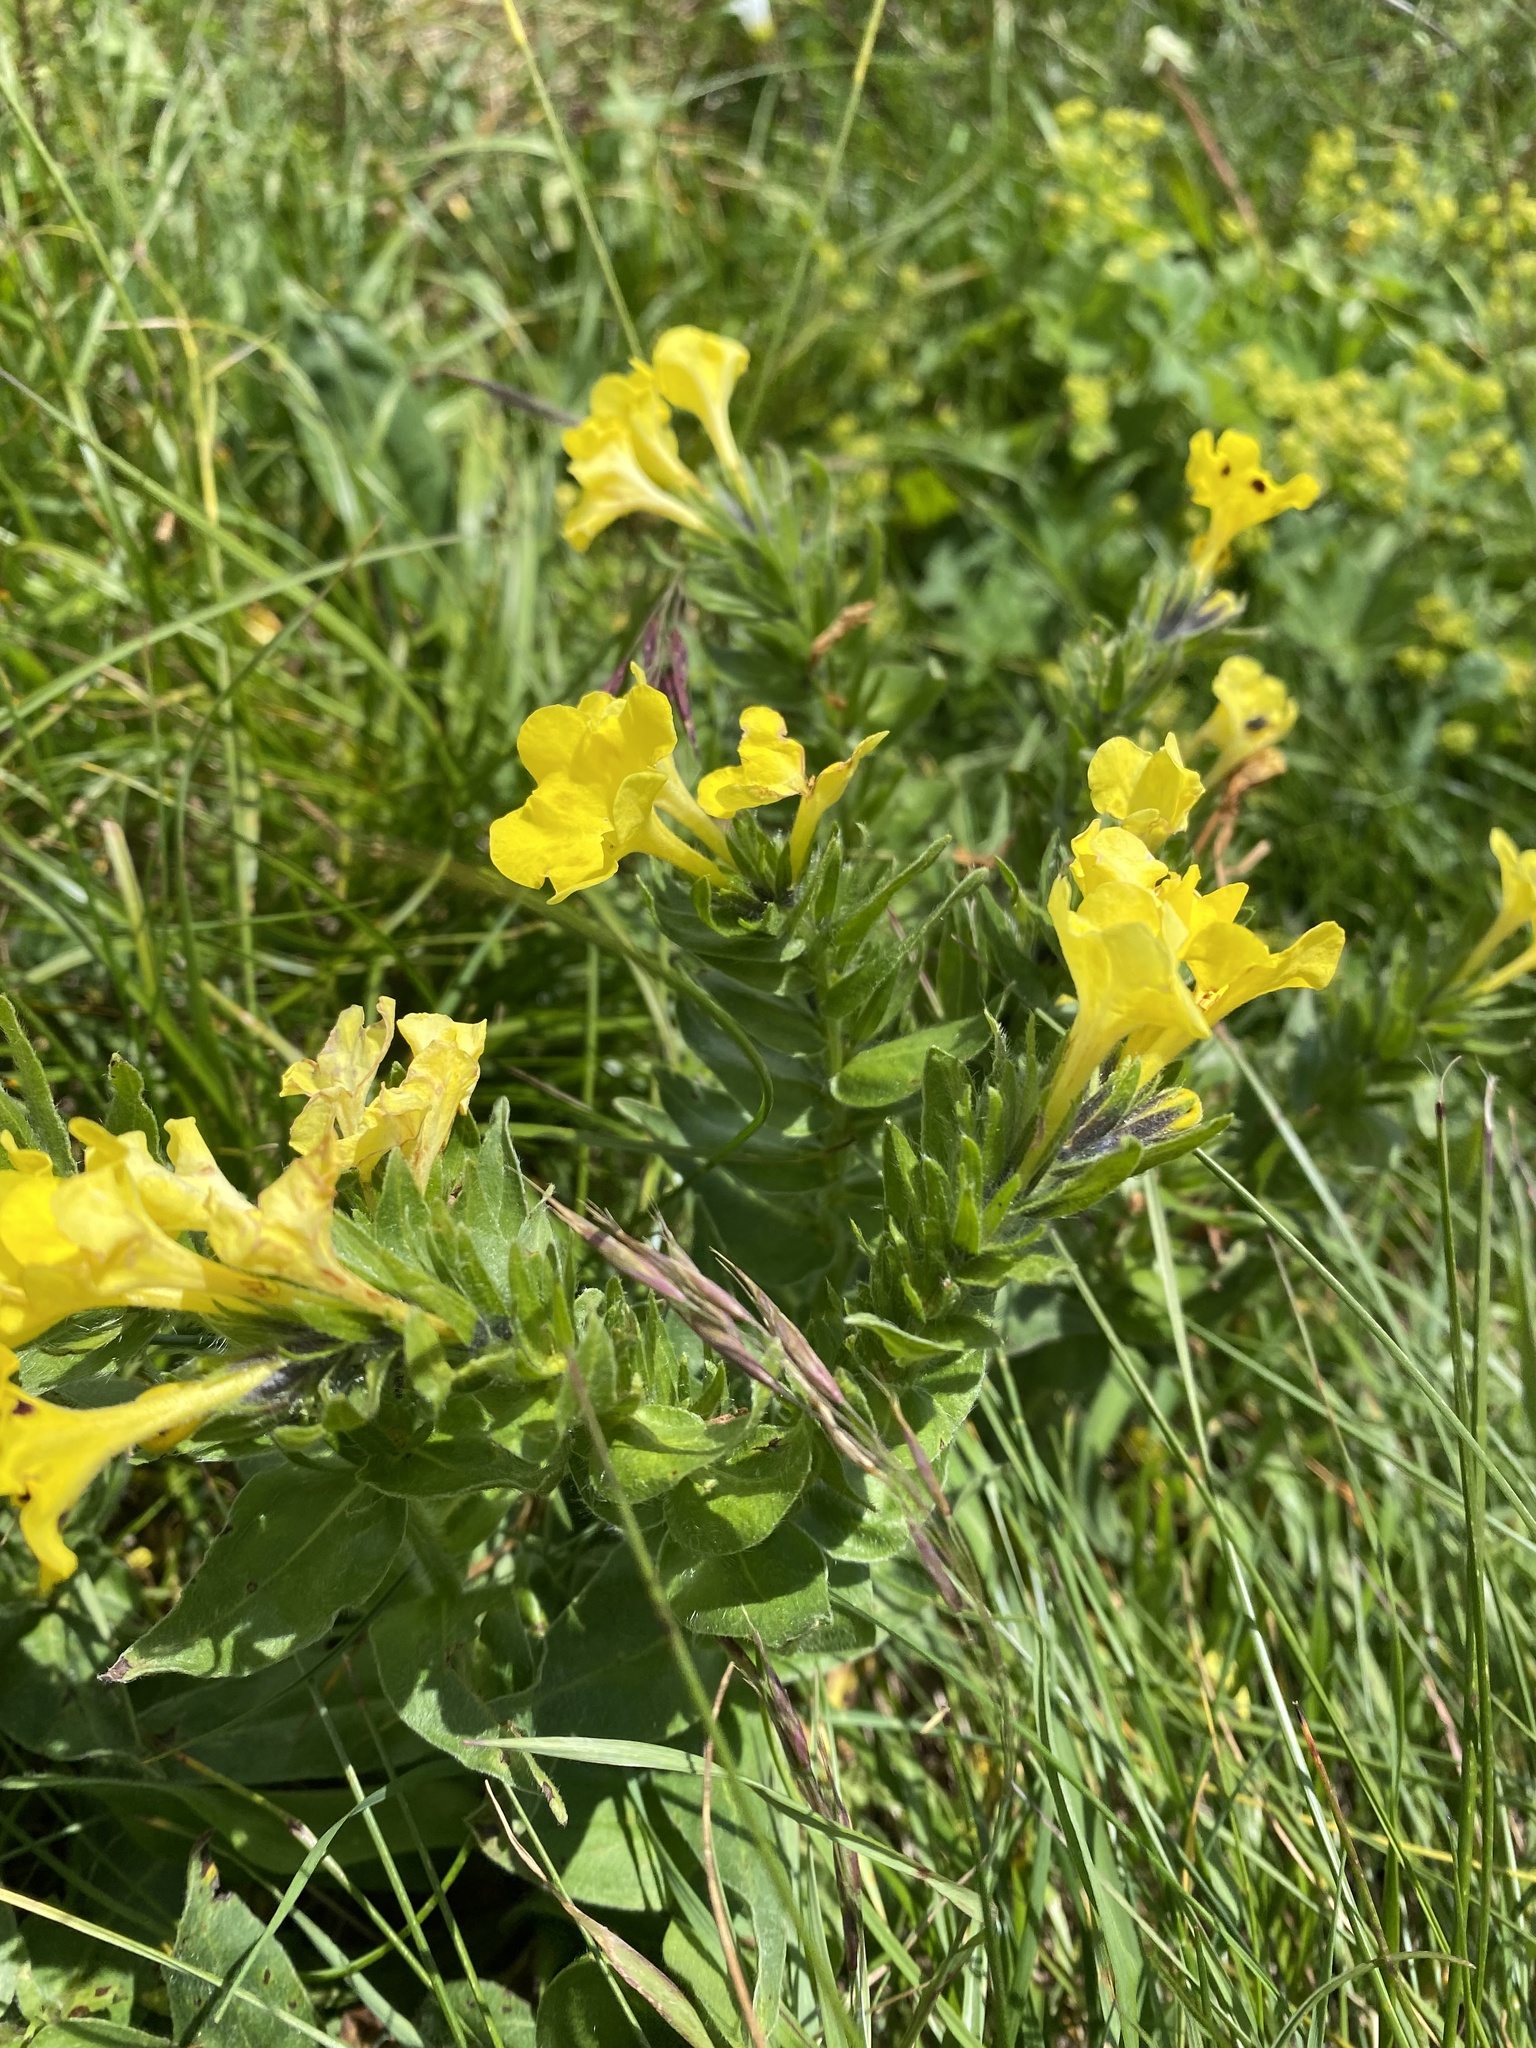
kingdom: Plantae
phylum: Tracheophyta
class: Magnoliopsida
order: Boraginales
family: Boraginaceae
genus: Huynhia
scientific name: Huynhia pulchra
